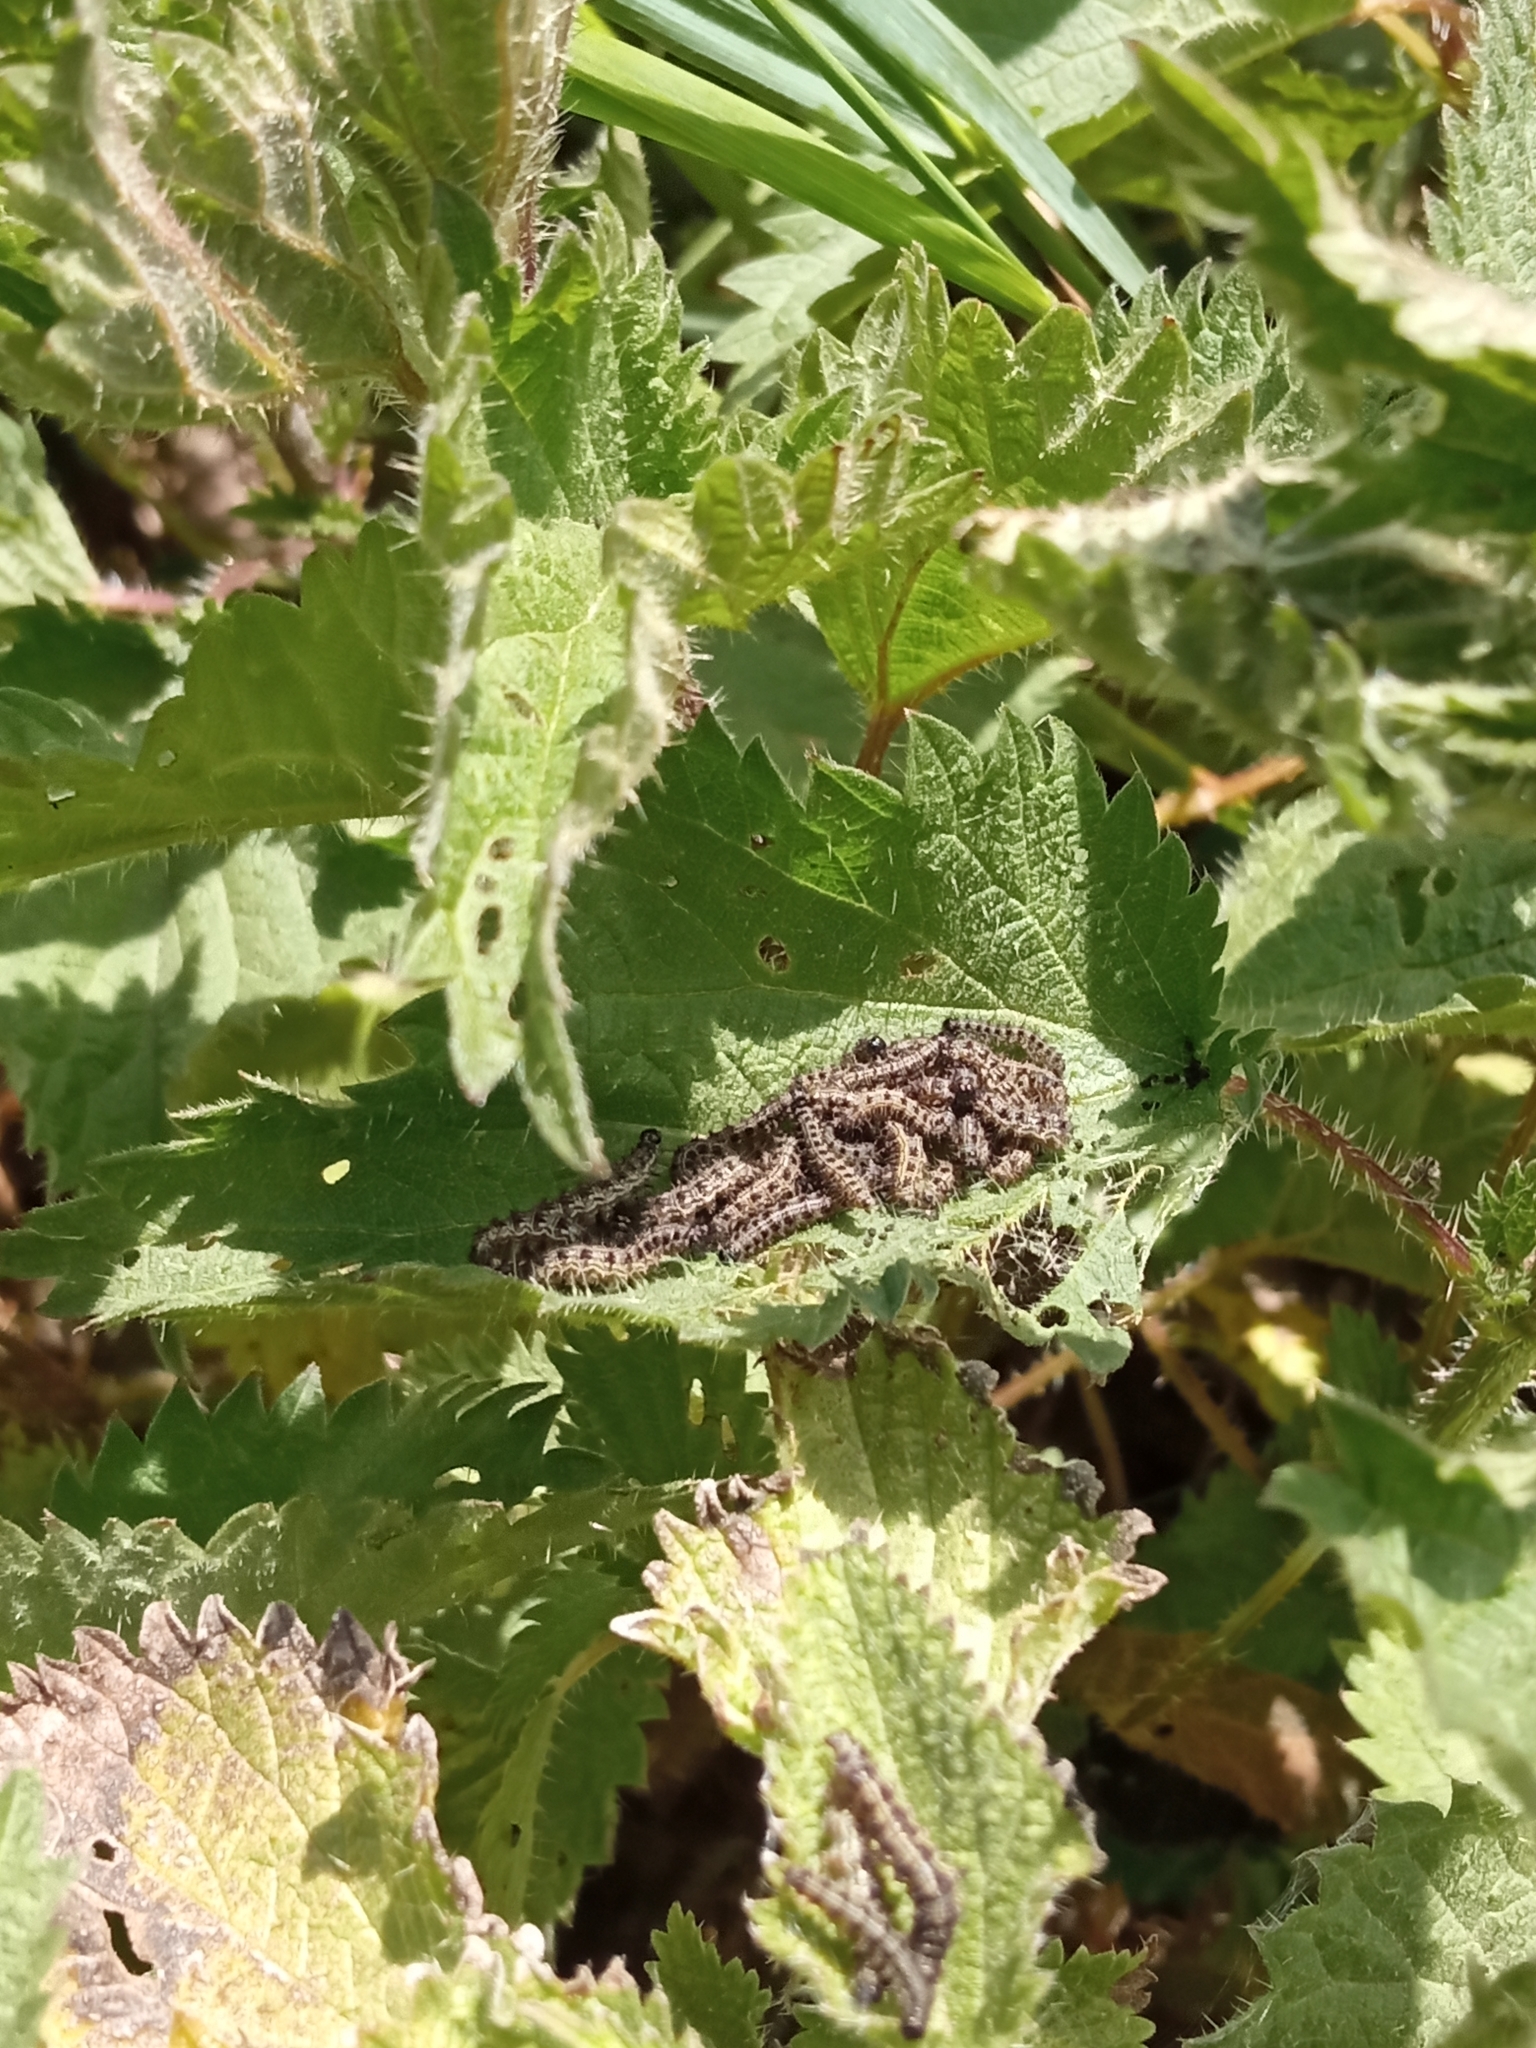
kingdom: Animalia
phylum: Arthropoda
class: Insecta
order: Lepidoptera
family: Nymphalidae
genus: Aglais
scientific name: Aglais urticae
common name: Small tortoiseshell
